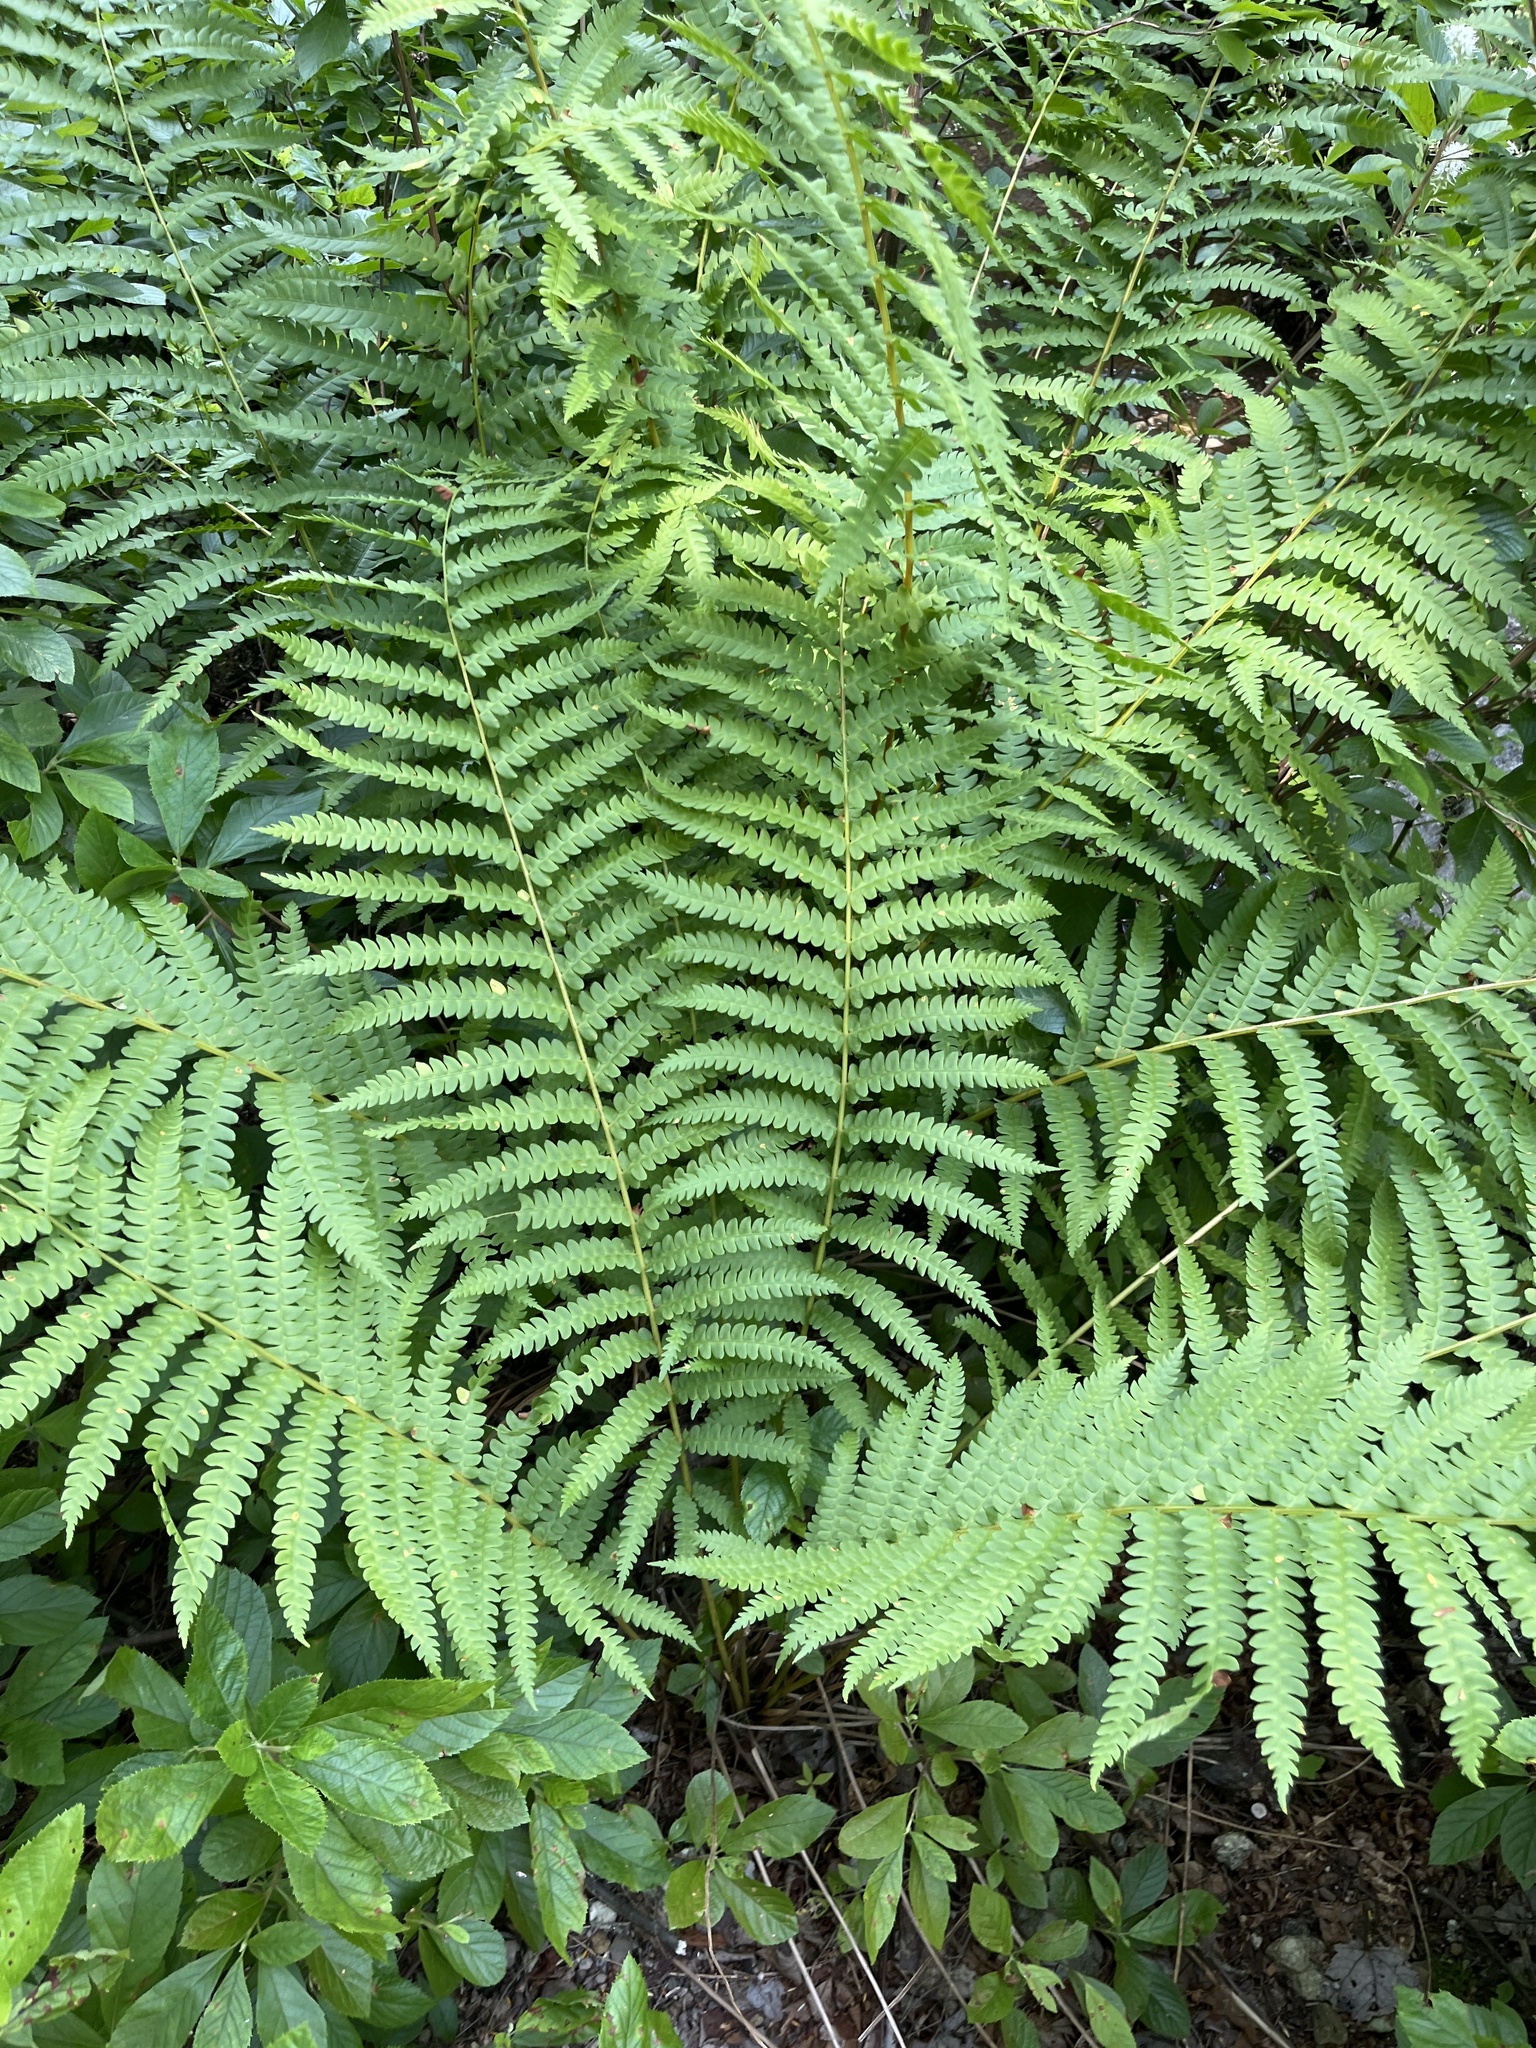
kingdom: Plantae
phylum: Tracheophyta
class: Polypodiopsida
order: Osmundales
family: Osmundaceae
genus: Osmundastrum
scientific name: Osmundastrum cinnamomeum
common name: Cinnamon fern
